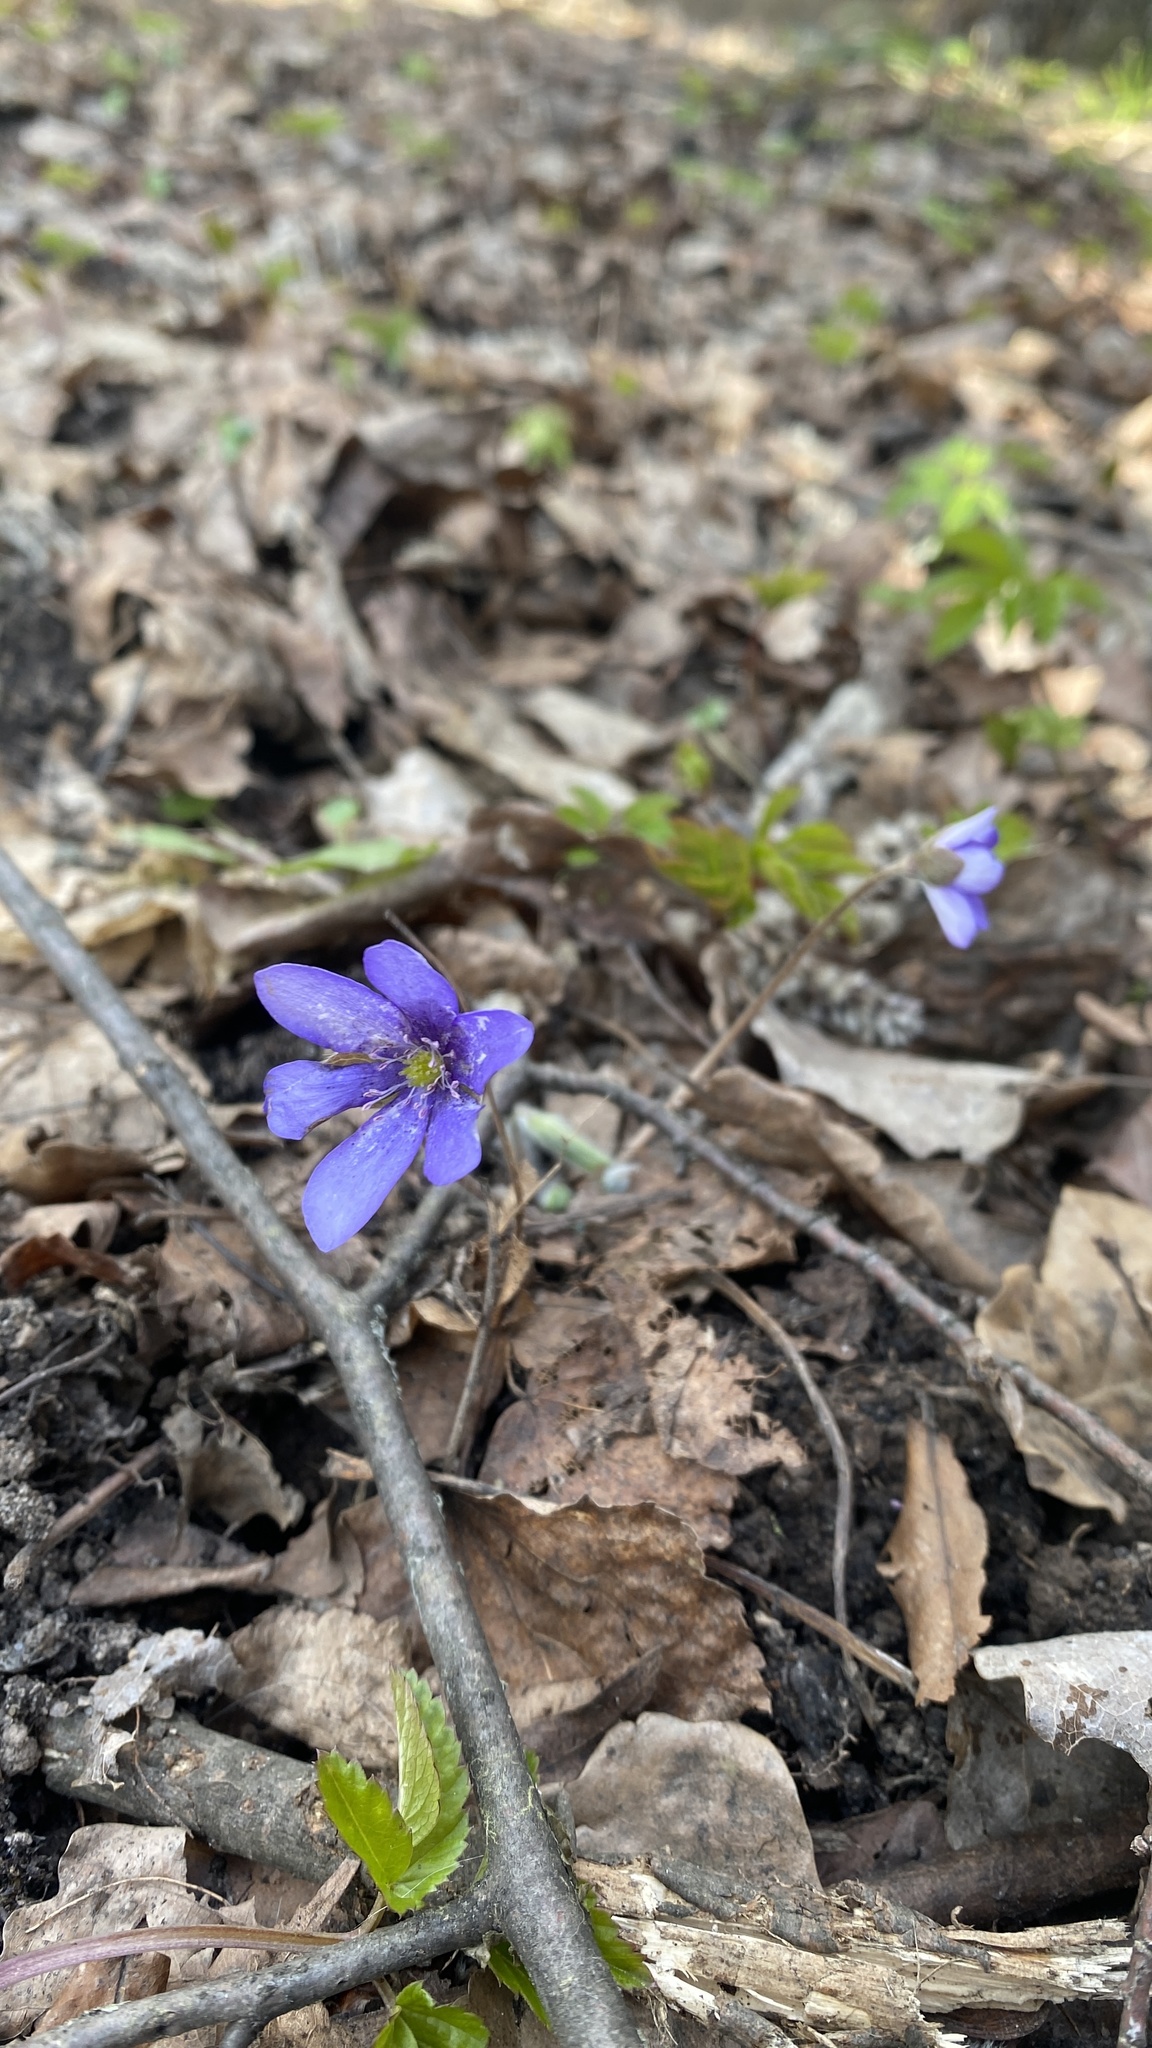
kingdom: Plantae
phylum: Tracheophyta
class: Magnoliopsida
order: Ranunculales
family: Ranunculaceae
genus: Hepatica
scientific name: Hepatica nobilis
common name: Liverleaf
